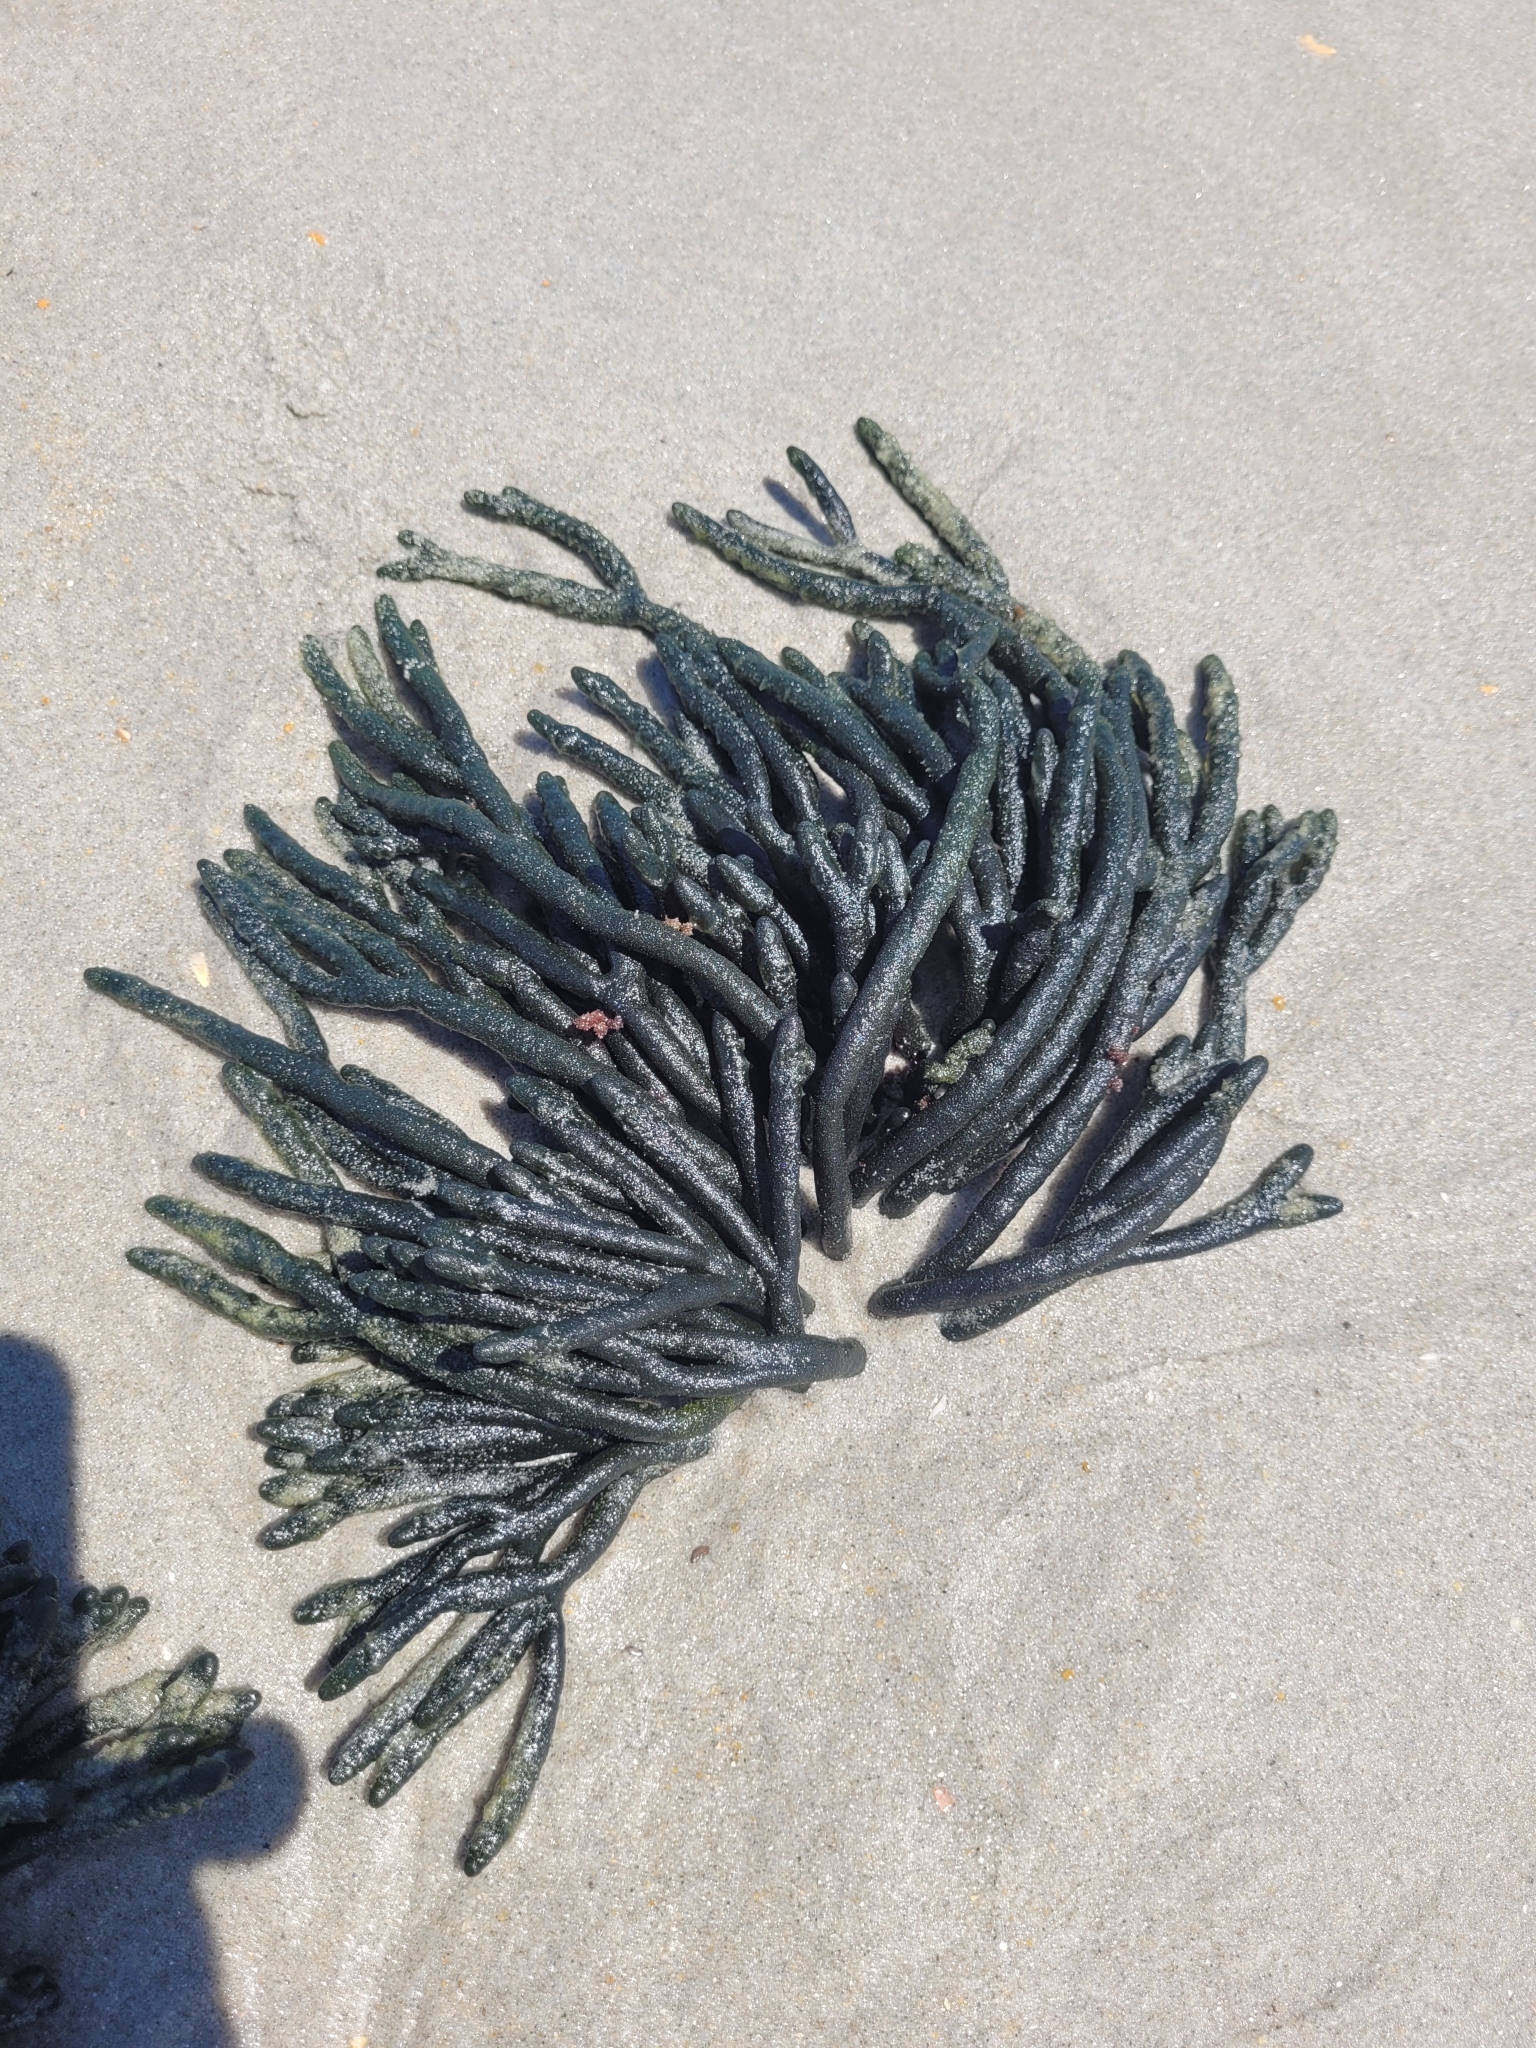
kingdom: Plantae
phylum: Chlorophyta
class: Ulvophyceae
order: Bryopsidales
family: Codiaceae
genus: Codium
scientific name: Codium fragile
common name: Dead man's fingers
